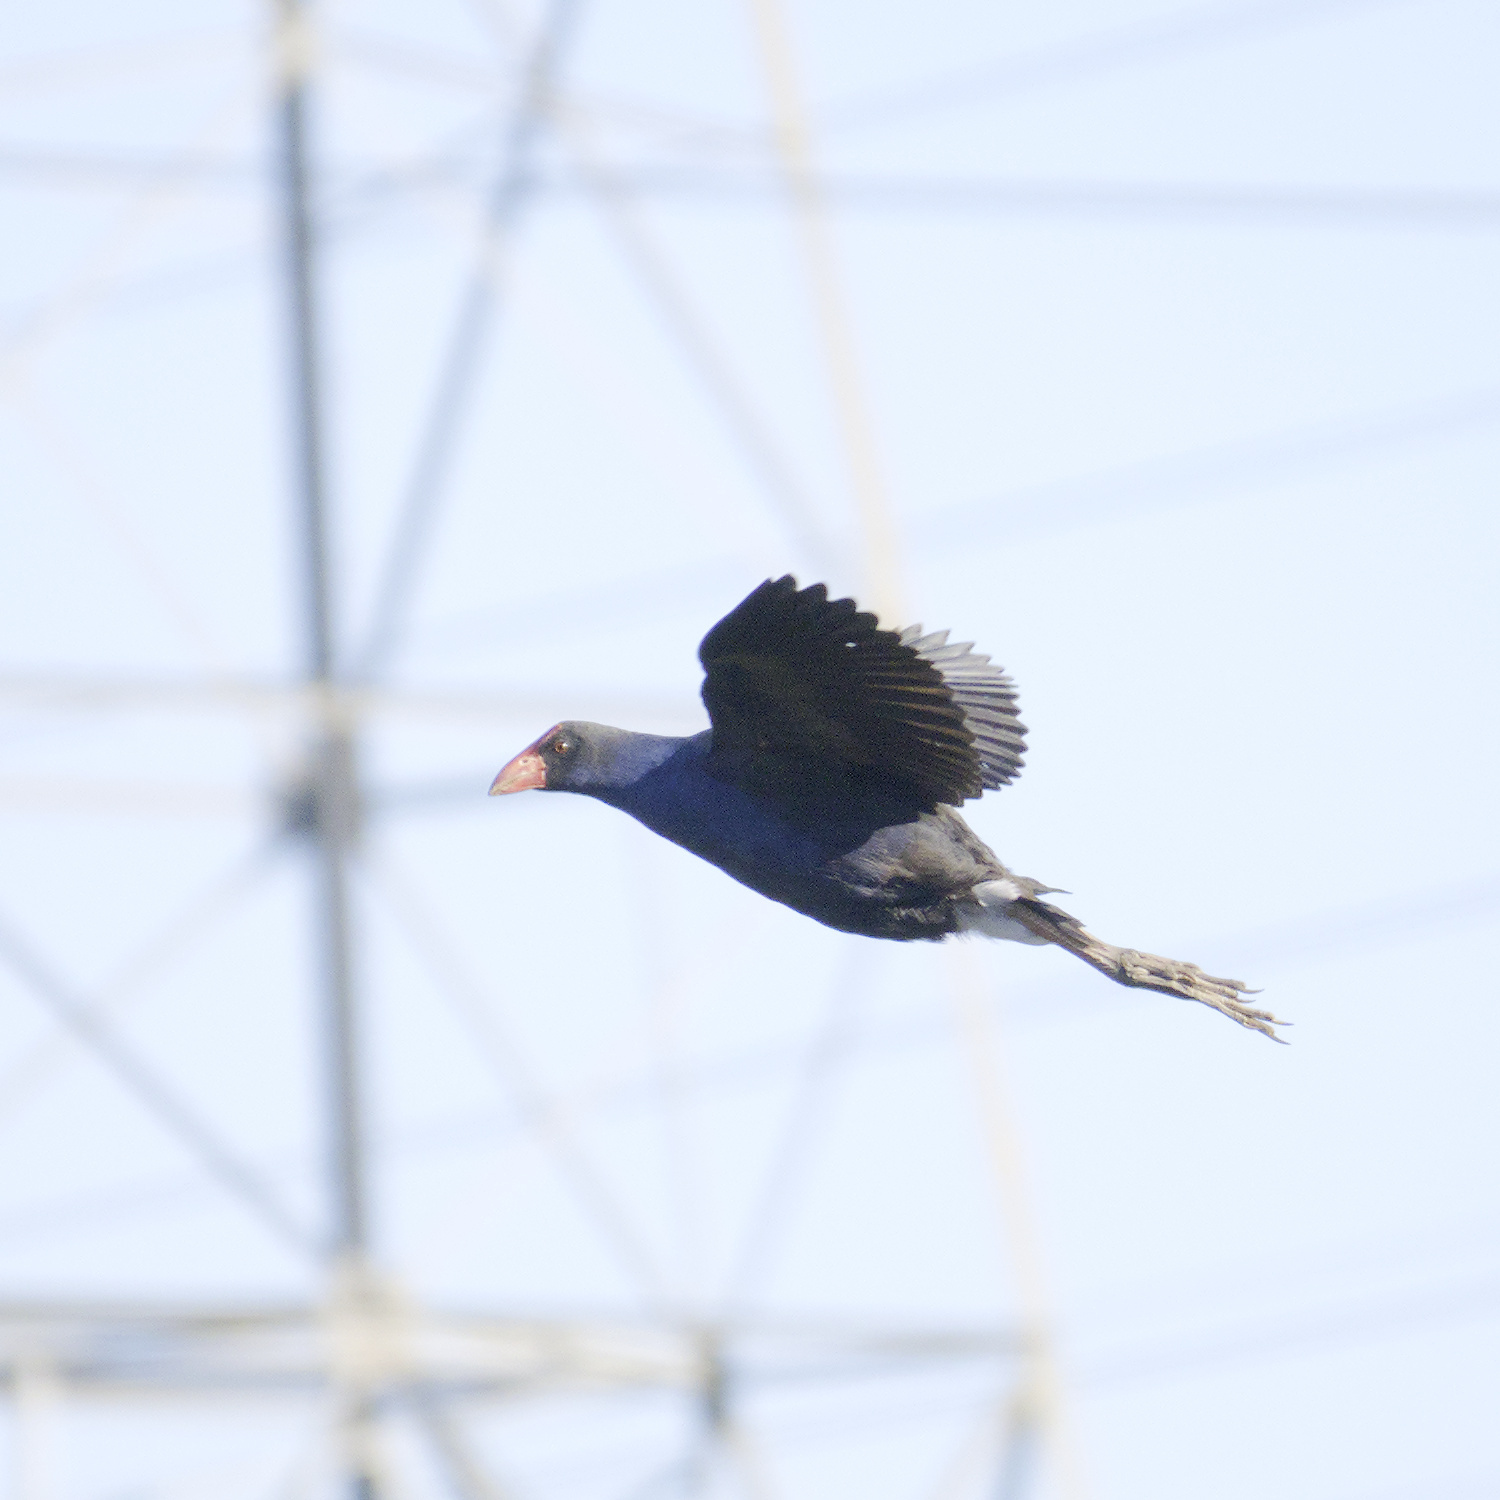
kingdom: Animalia
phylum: Chordata
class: Aves
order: Gruiformes
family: Rallidae
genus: Porphyrio
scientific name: Porphyrio melanotus
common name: Australasian swamphen
